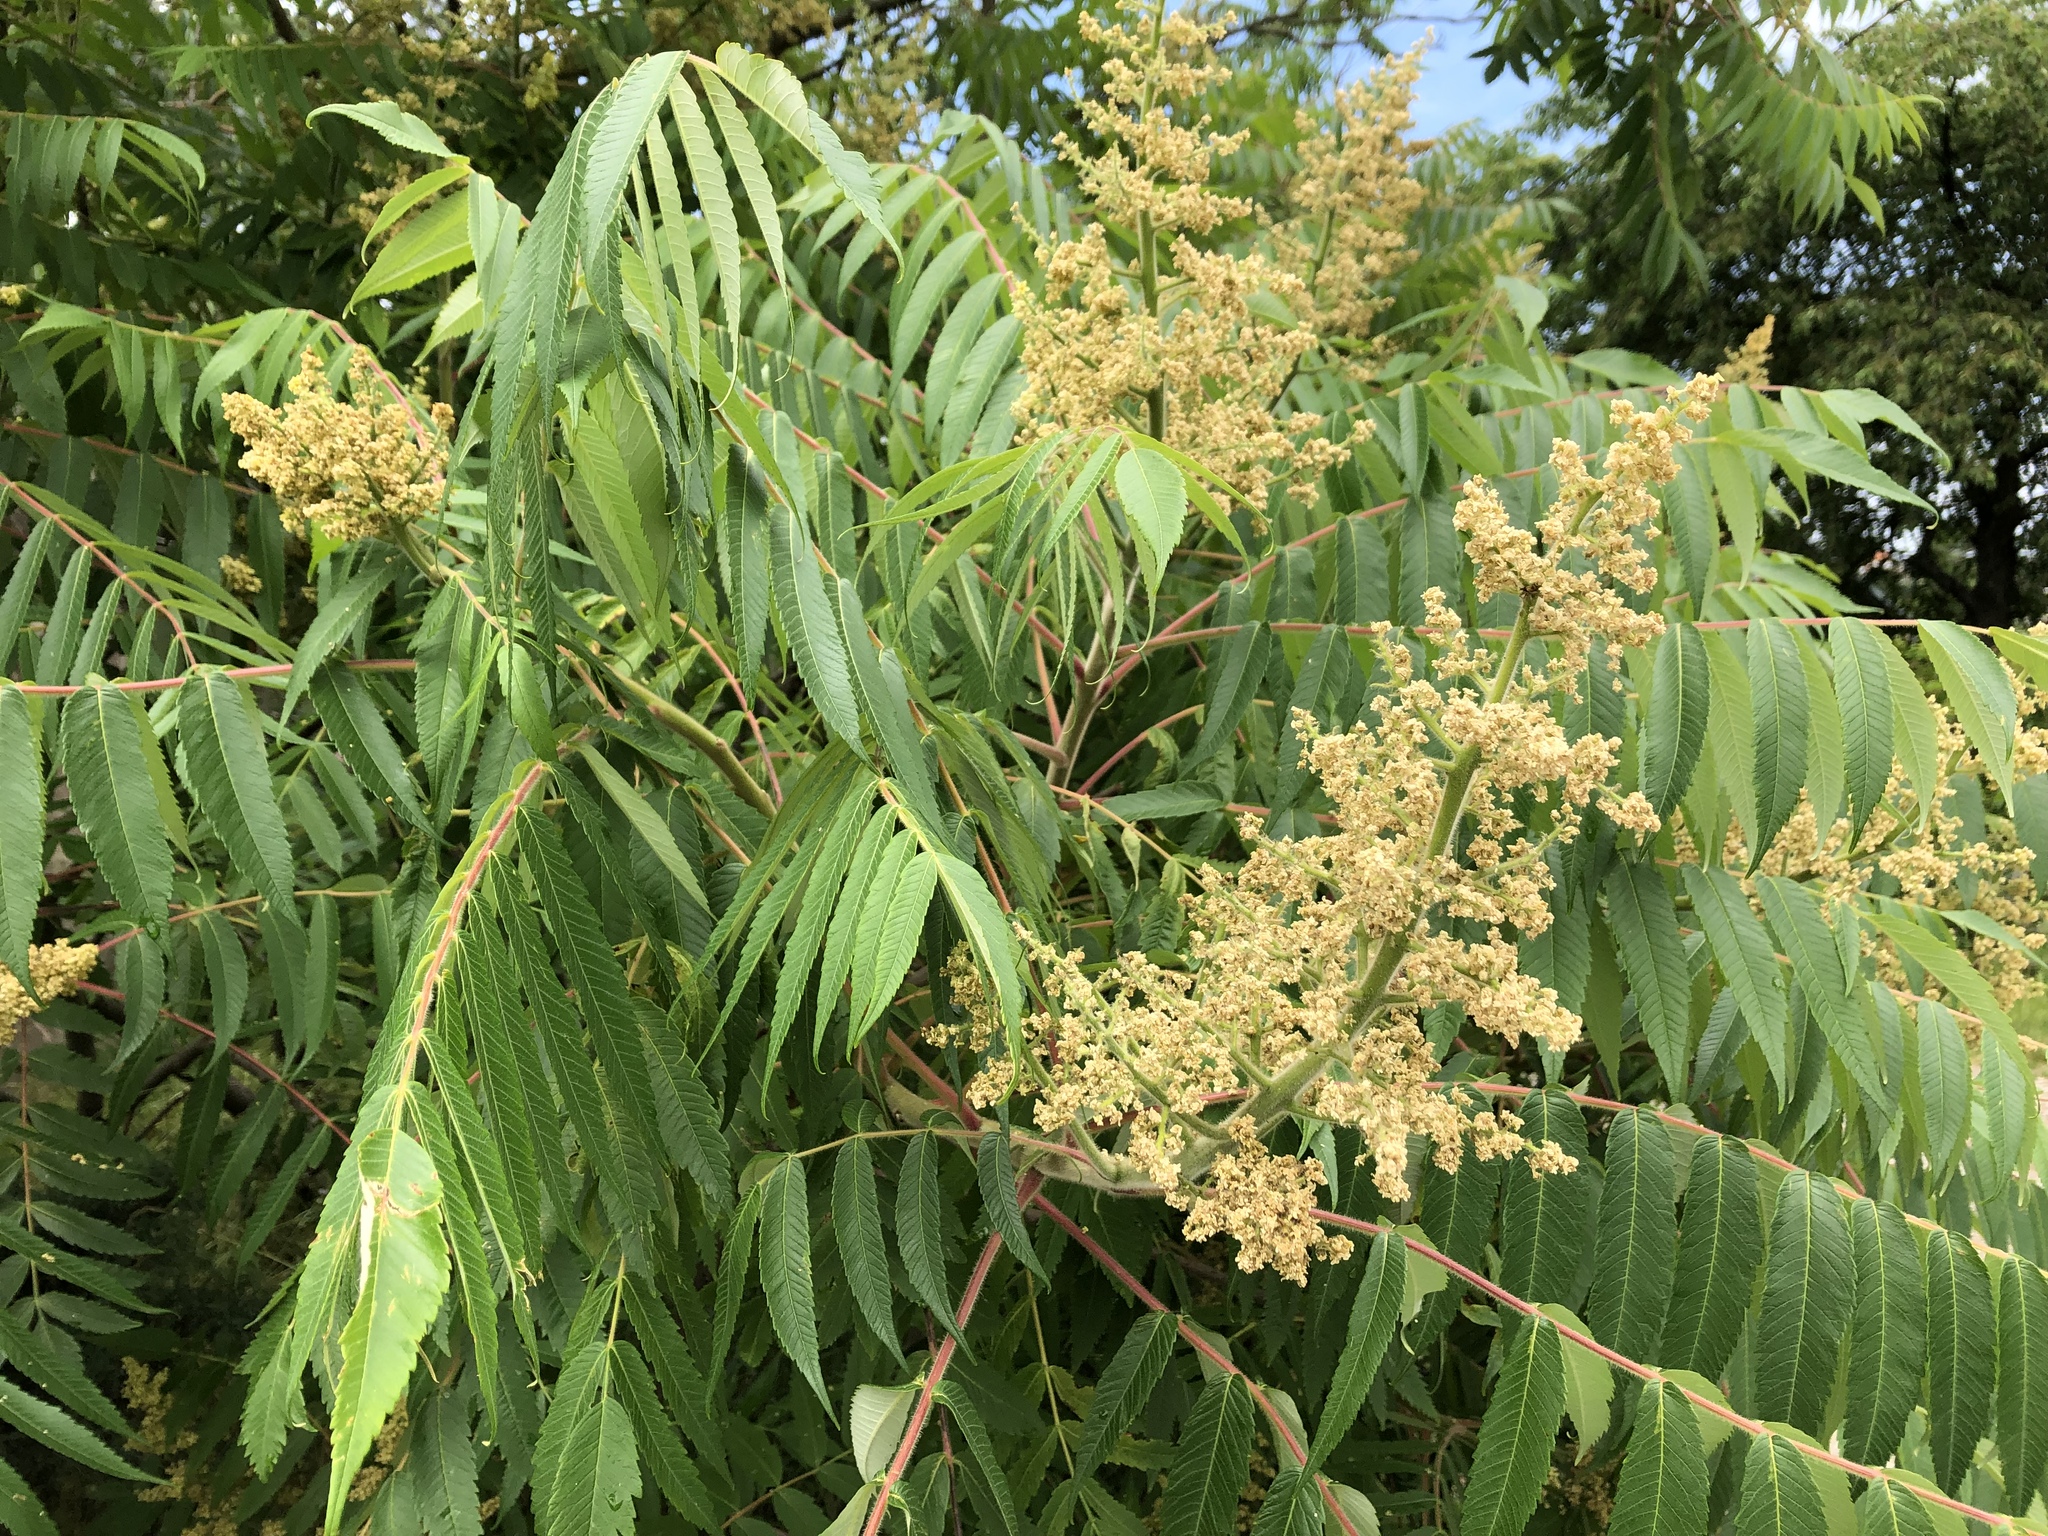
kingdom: Plantae
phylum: Tracheophyta
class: Magnoliopsida
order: Sapindales
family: Anacardiaceae
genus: Rhus
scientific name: Rhus typhina
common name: Staghorn sumac
